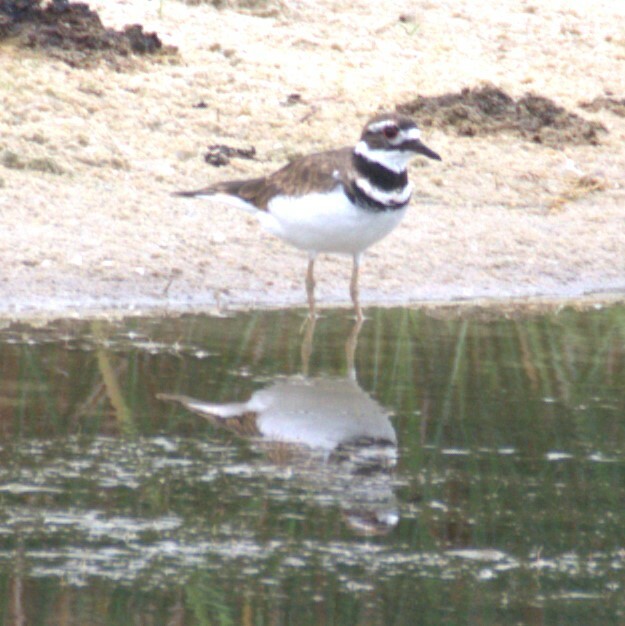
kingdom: Animalia
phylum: Chordata
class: Aves
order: Charadriiformes
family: Charadriidae
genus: Charadrius
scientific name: Charadrius vociferus
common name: Killdeer
